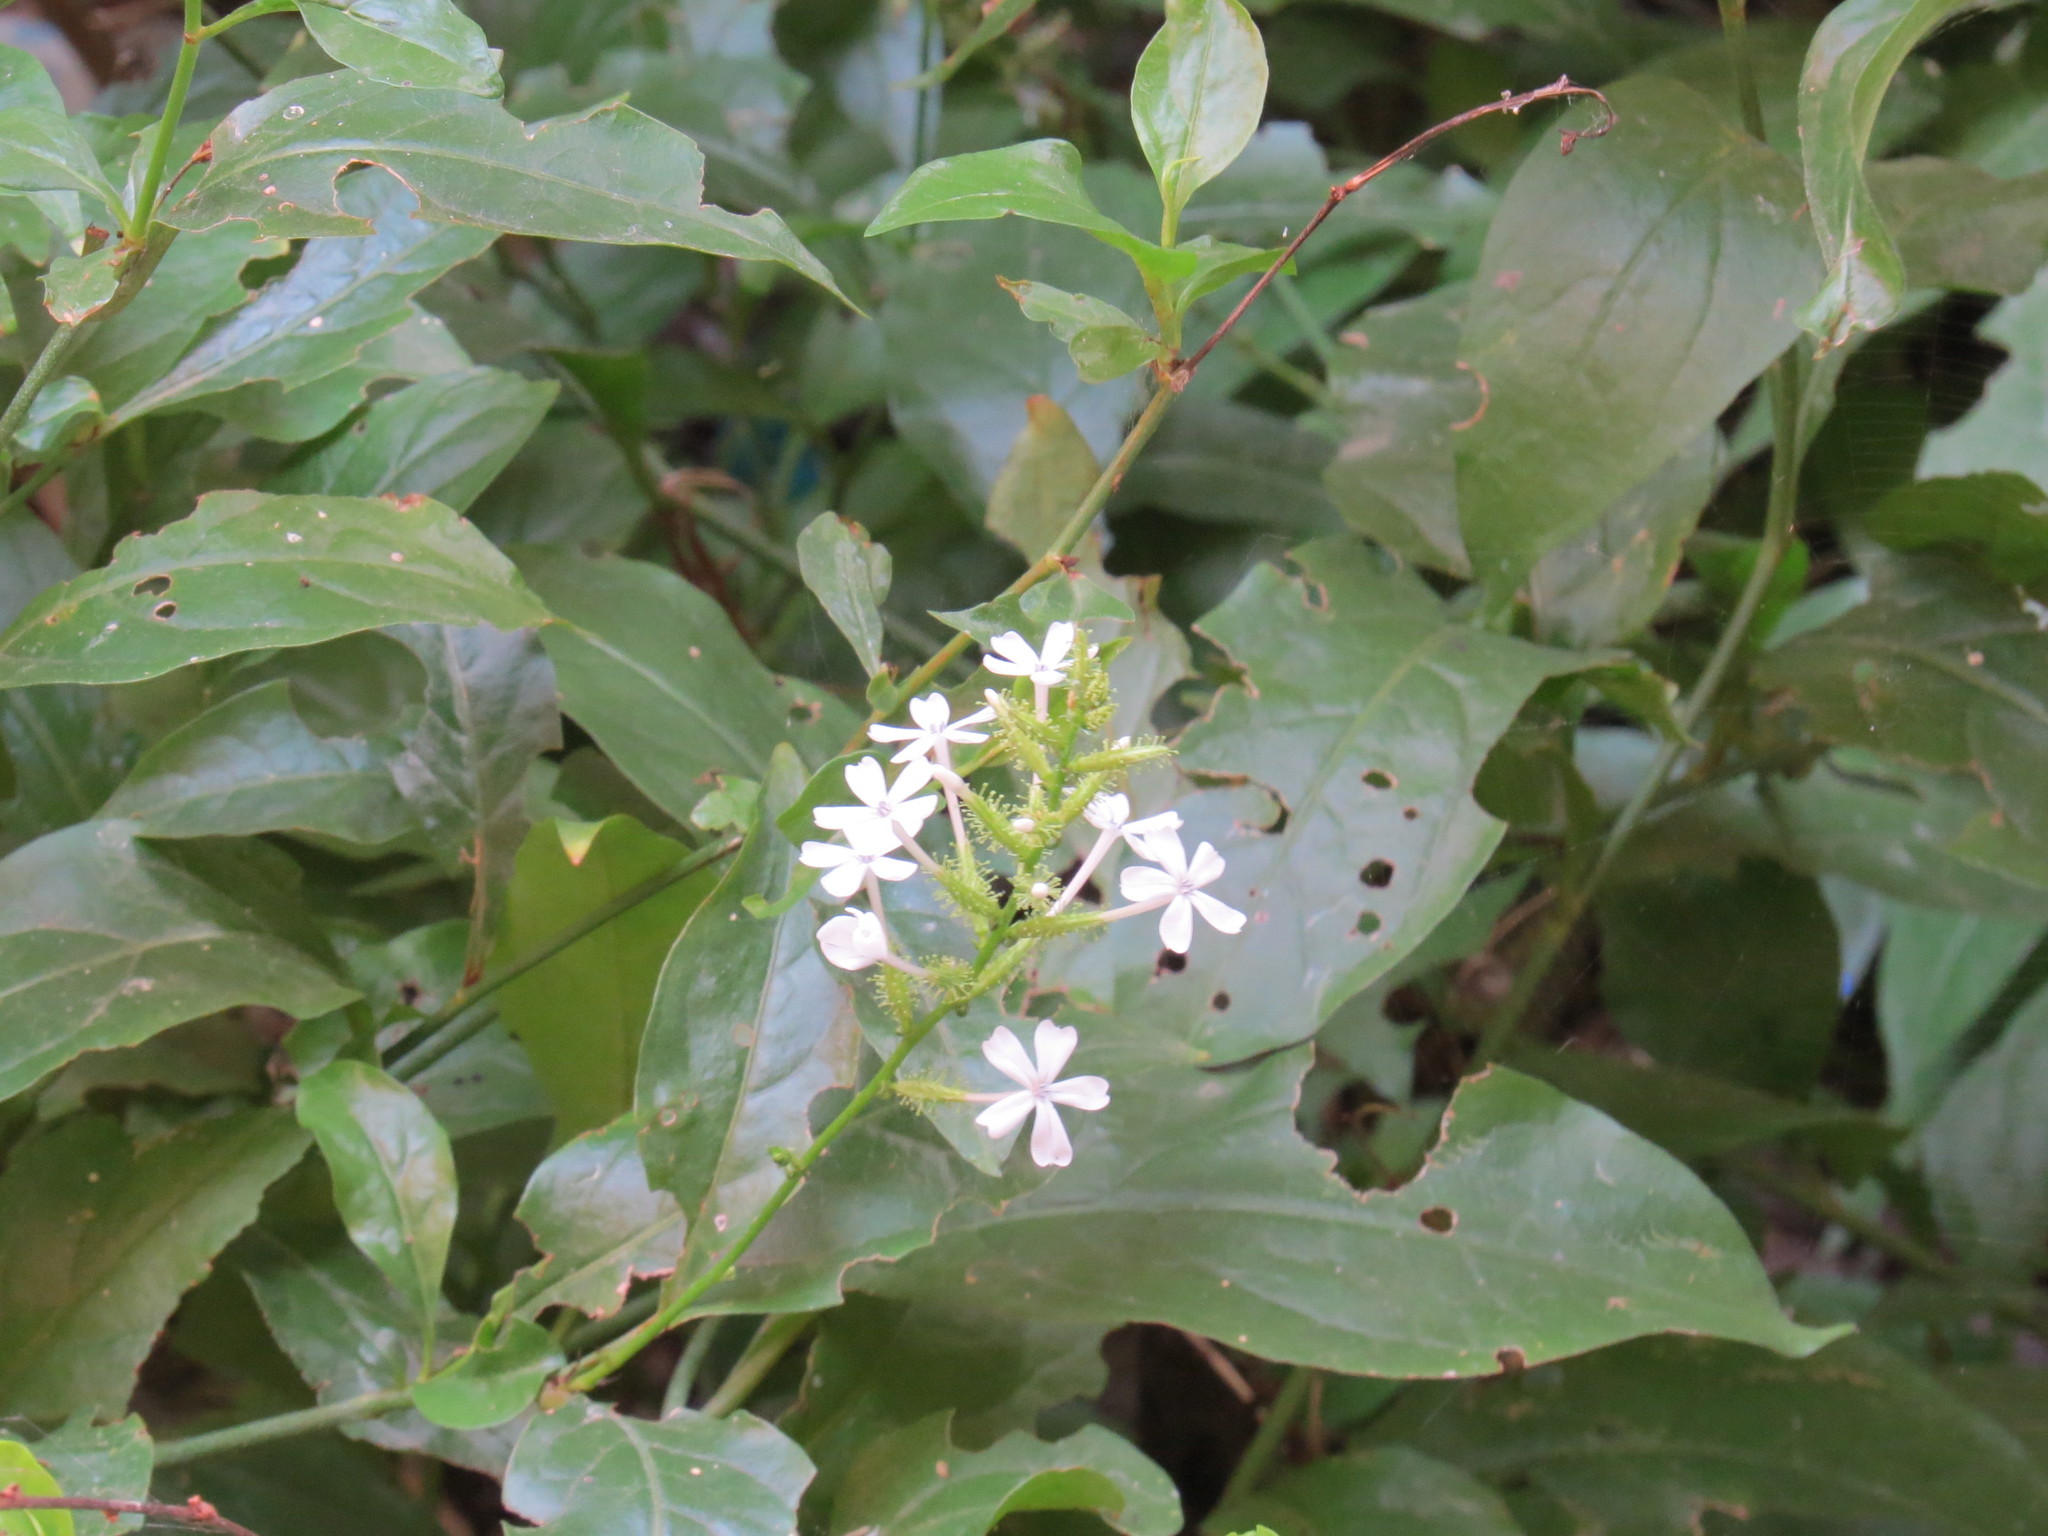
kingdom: Plantae
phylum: Tracheophyta
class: Magnoliopsida
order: Caryophyllales
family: Plumbaginaceae
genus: Plumbago
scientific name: Plumbago zeylanica
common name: Doctorbush
